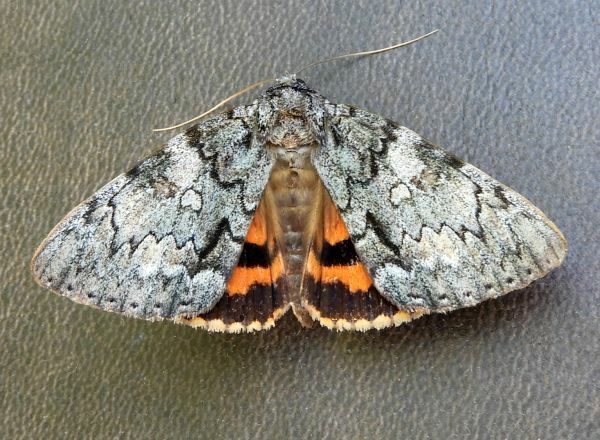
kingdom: Animalia
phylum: Arthropoda
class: Insecta
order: Lepidoptera
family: Erebidae
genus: Catocala
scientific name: Catocala palaeogama
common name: Oldwife underwing
